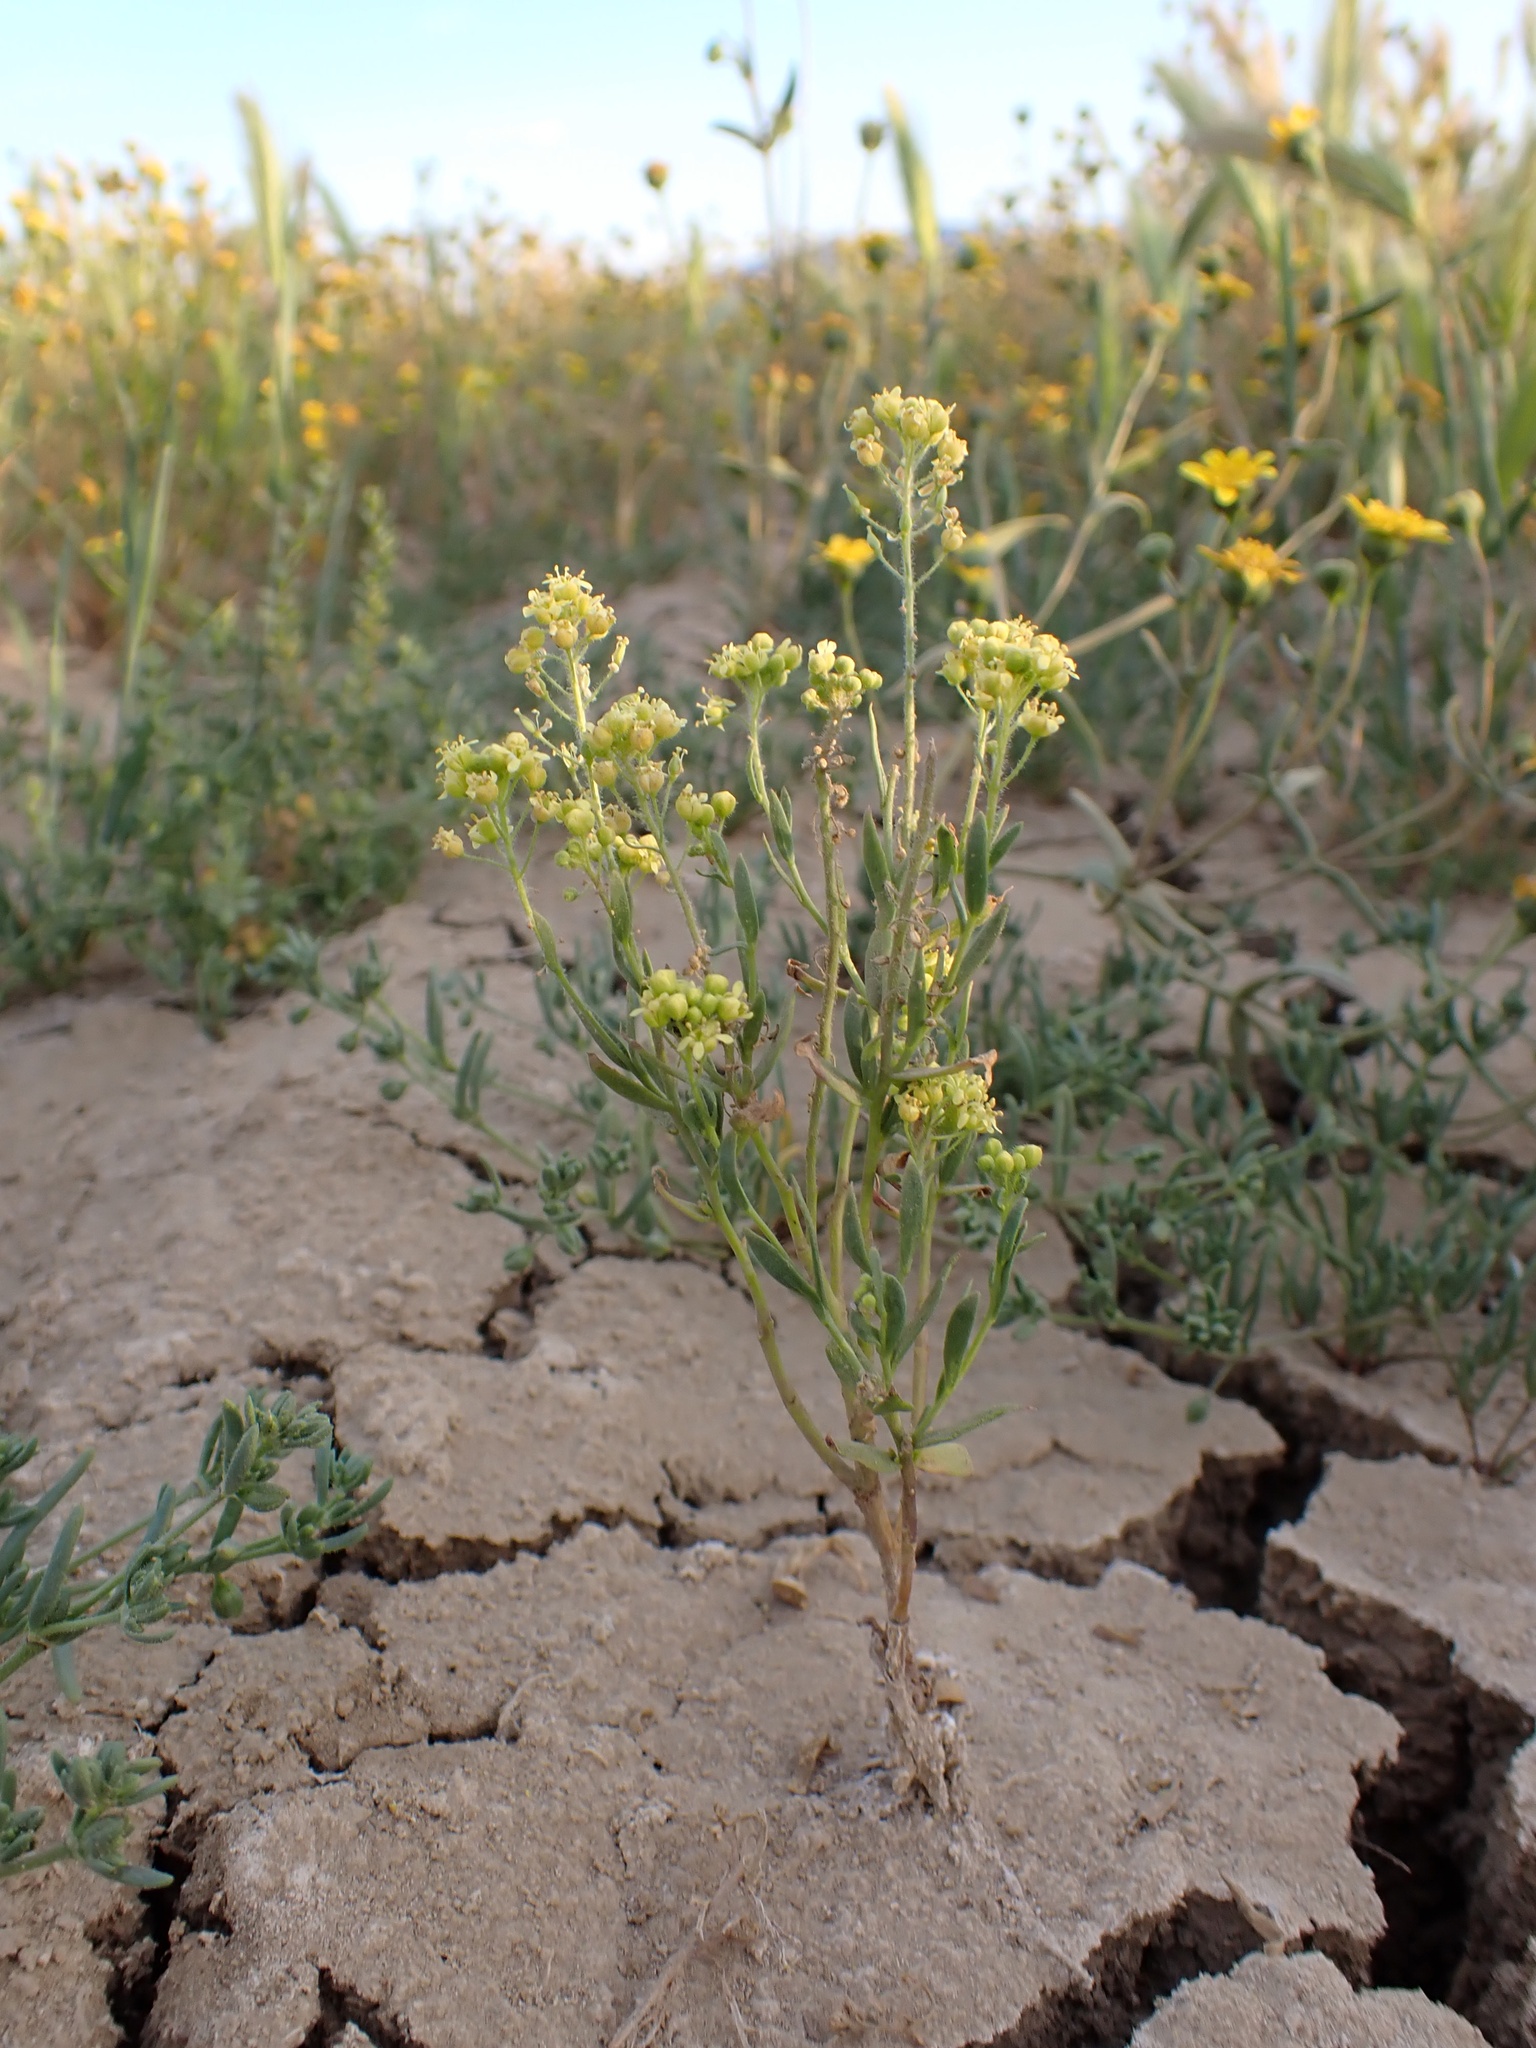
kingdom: Plantae
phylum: Tracheophyta
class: Magnoliopsida
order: Brassicales
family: Brassicaceae
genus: Lepidium
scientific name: Lepidium jaredii
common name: Jared's peppergrass
